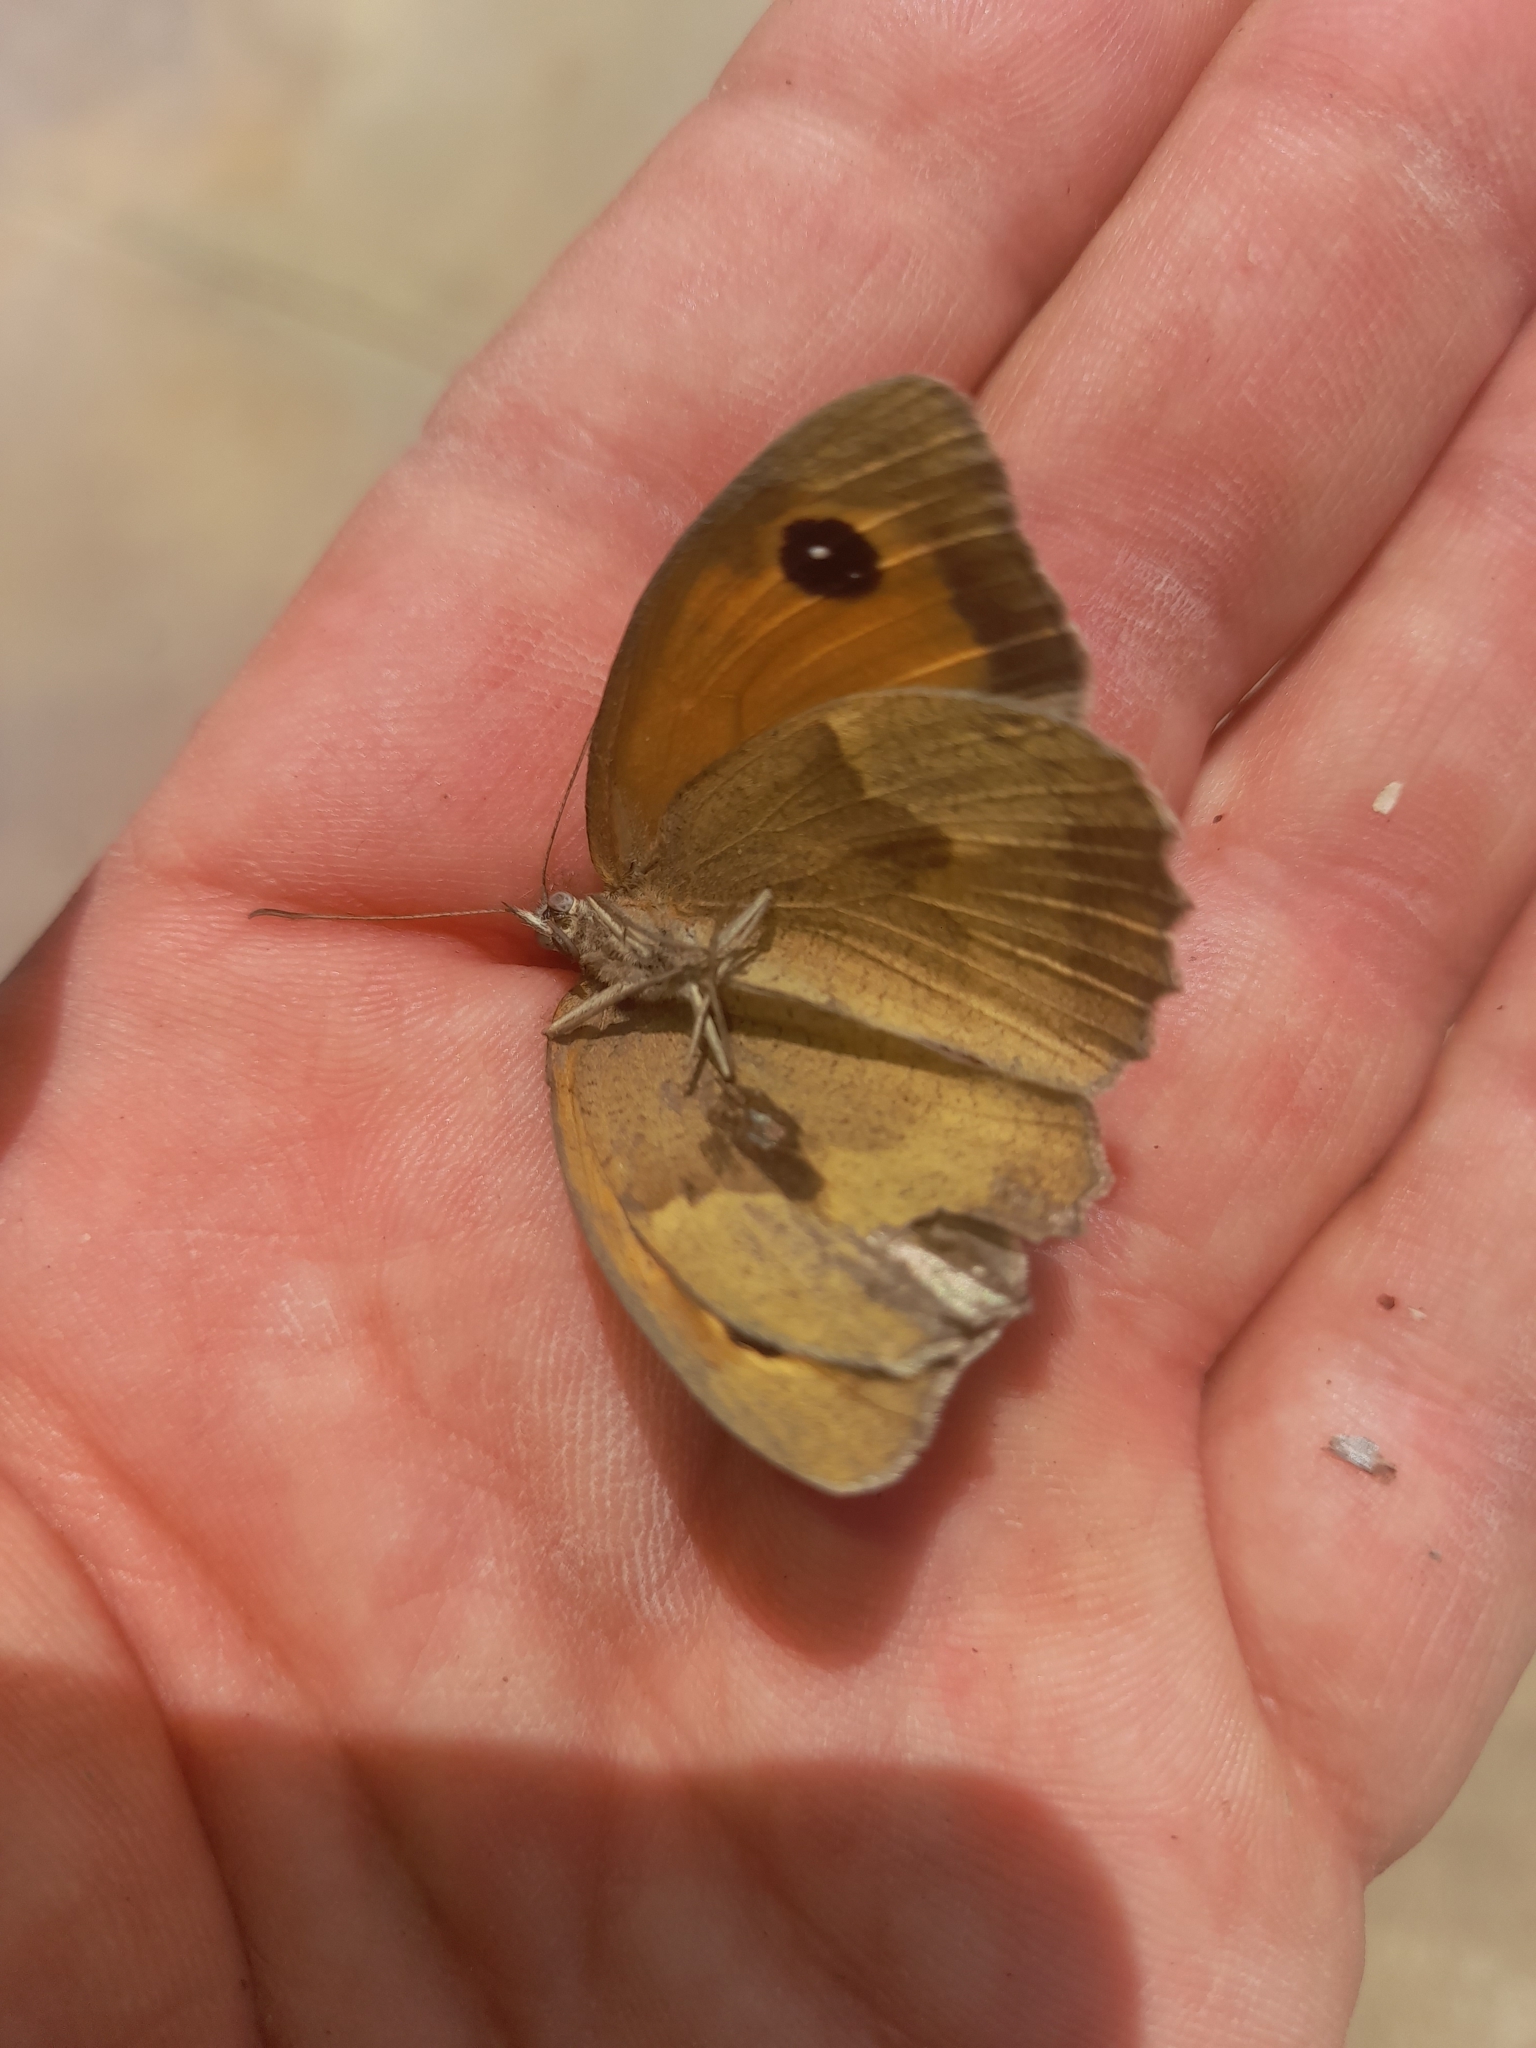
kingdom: Animalia
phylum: Arthropoda
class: Insecta
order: Lepidoptera
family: Nymphalidae
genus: Maniola
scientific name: Maniola jurtina
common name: Meadow brown
